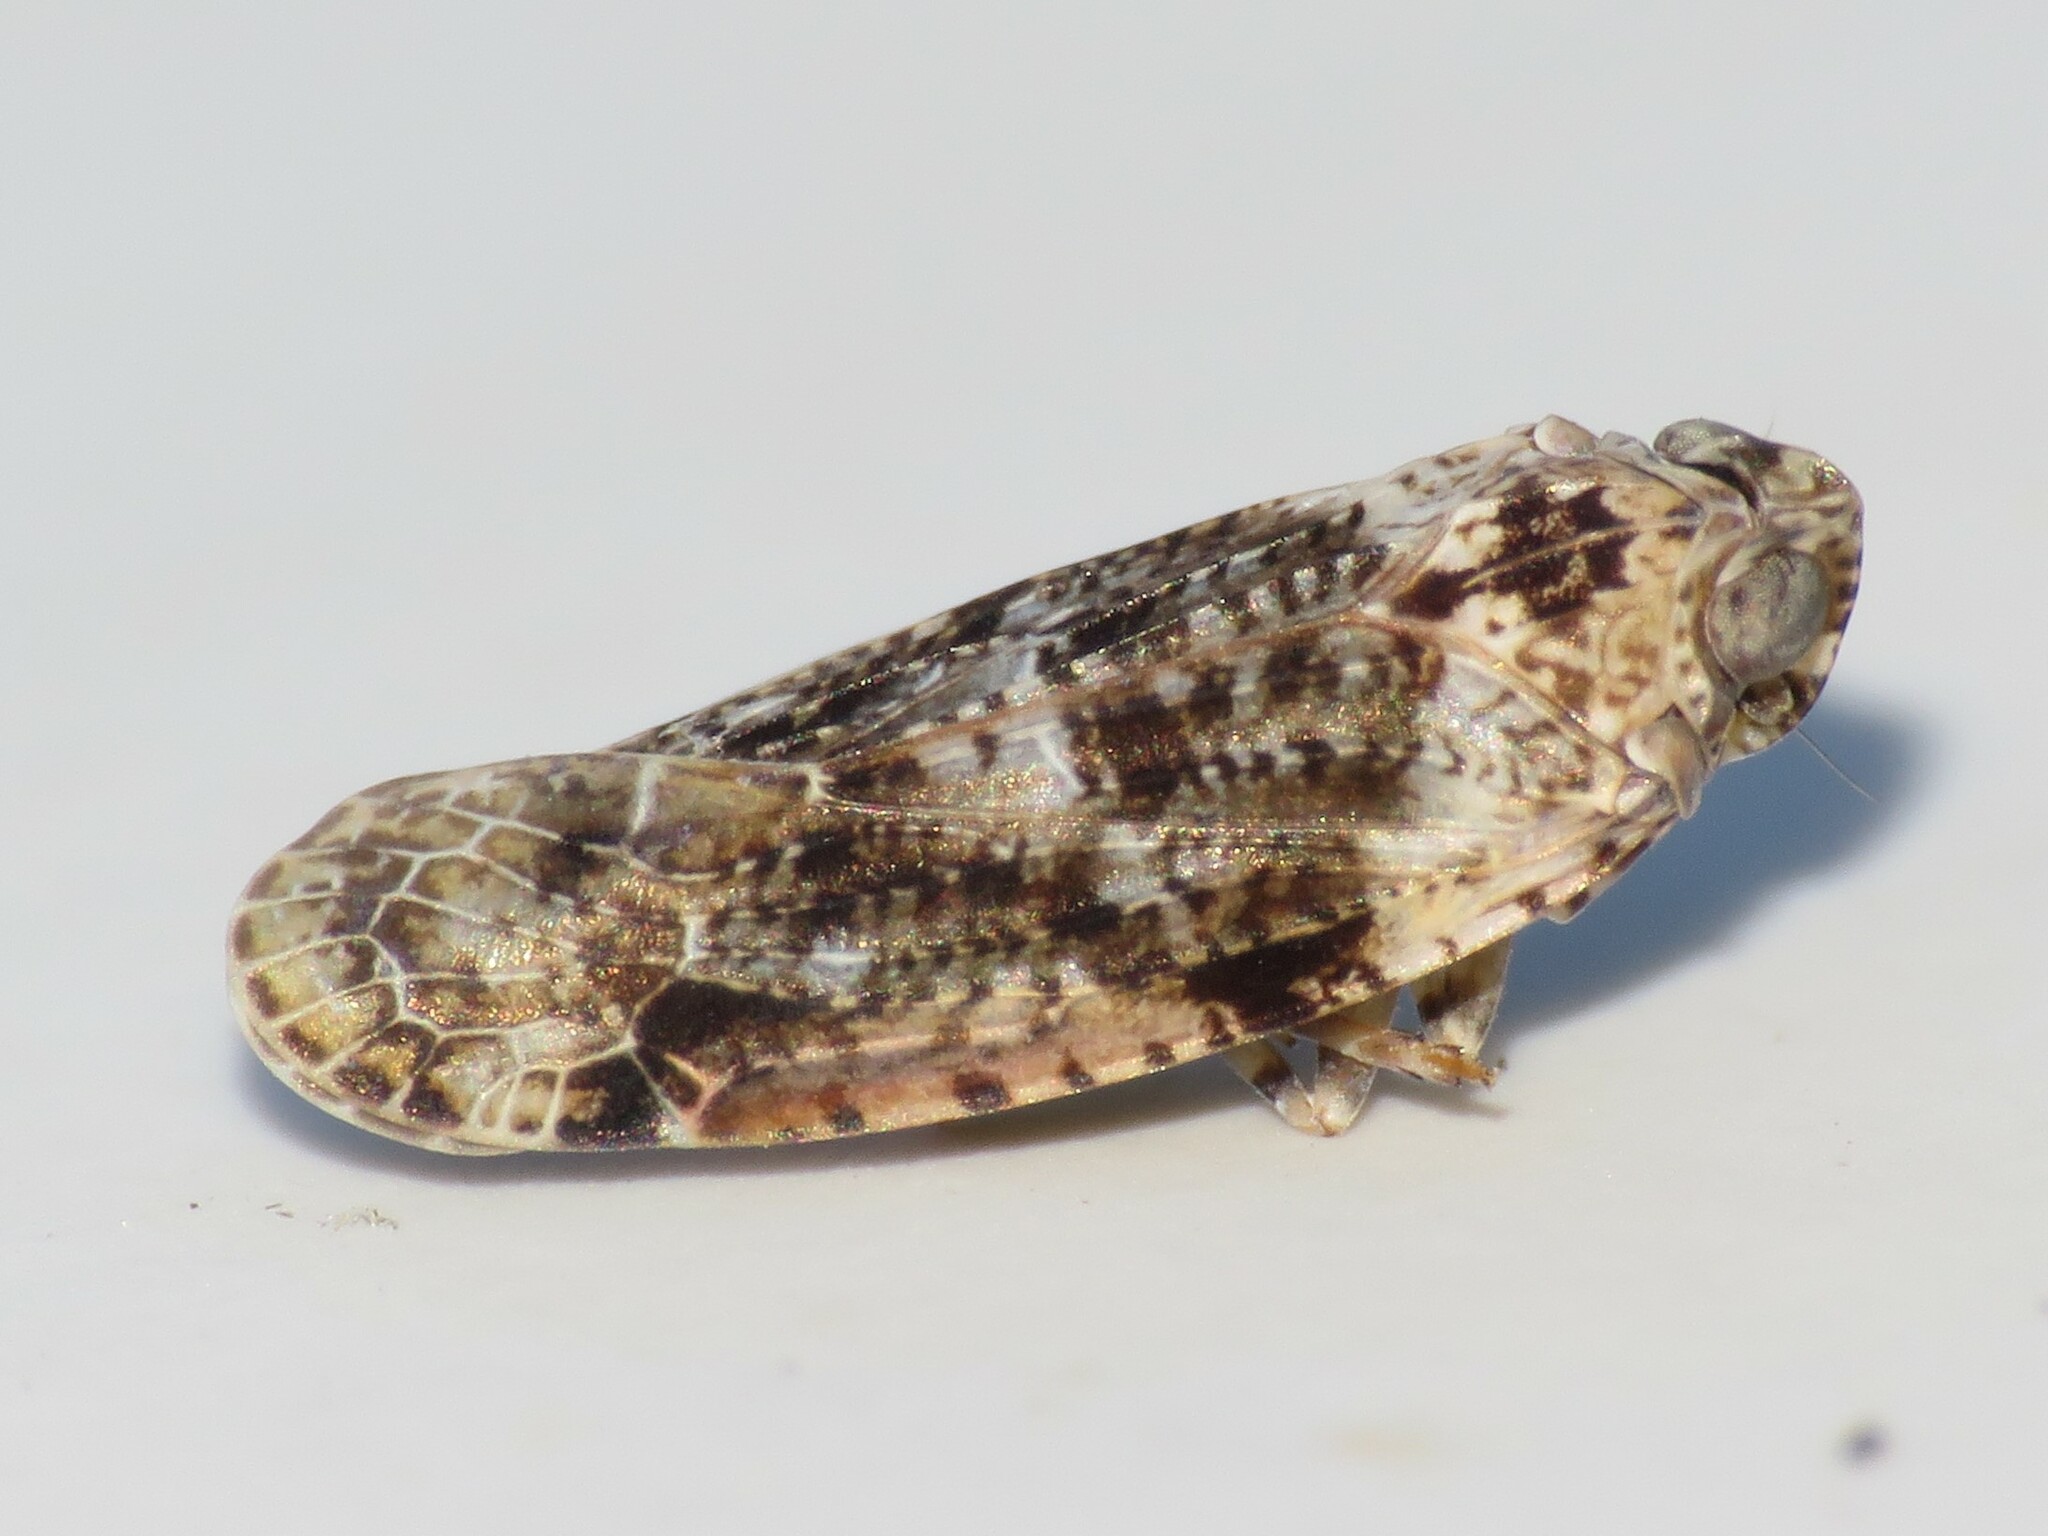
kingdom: Animalia
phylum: Arthropoda
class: Insecta
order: Hemiptera
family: Achilidae
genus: Catonia
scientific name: Catonia nava
